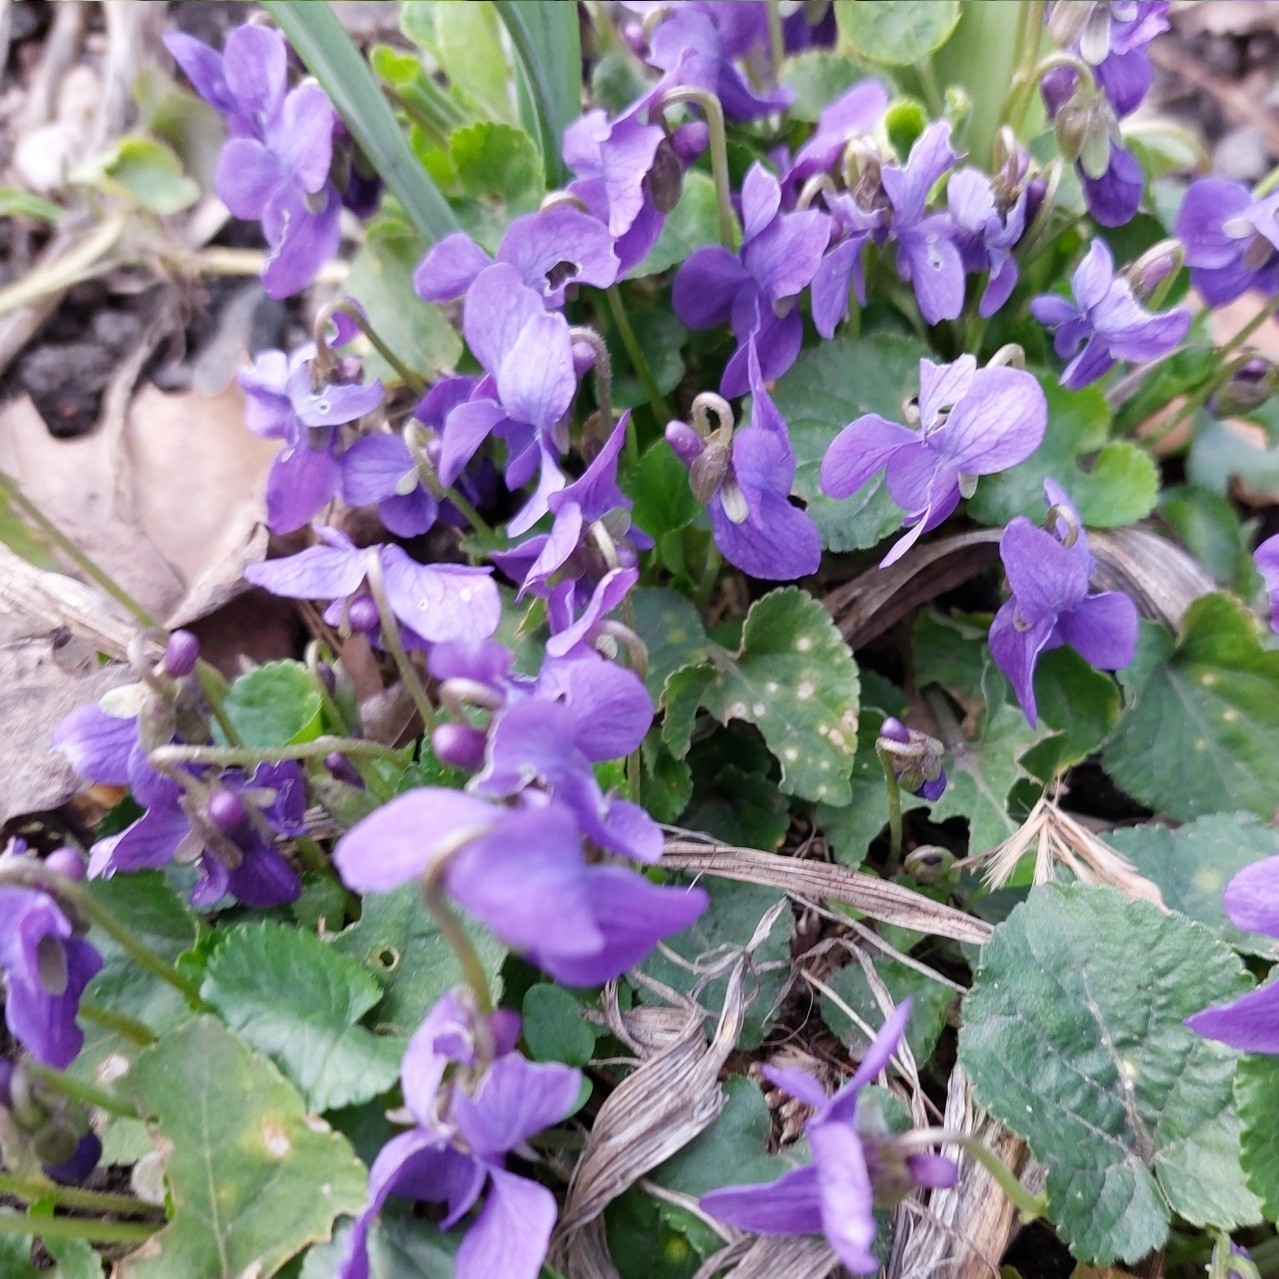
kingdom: Plantae
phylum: Tracheophyta
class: Magnoliopsida
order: Malpighiales
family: Violaceae
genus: Viola
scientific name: Viola odorata
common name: Sweet violet
